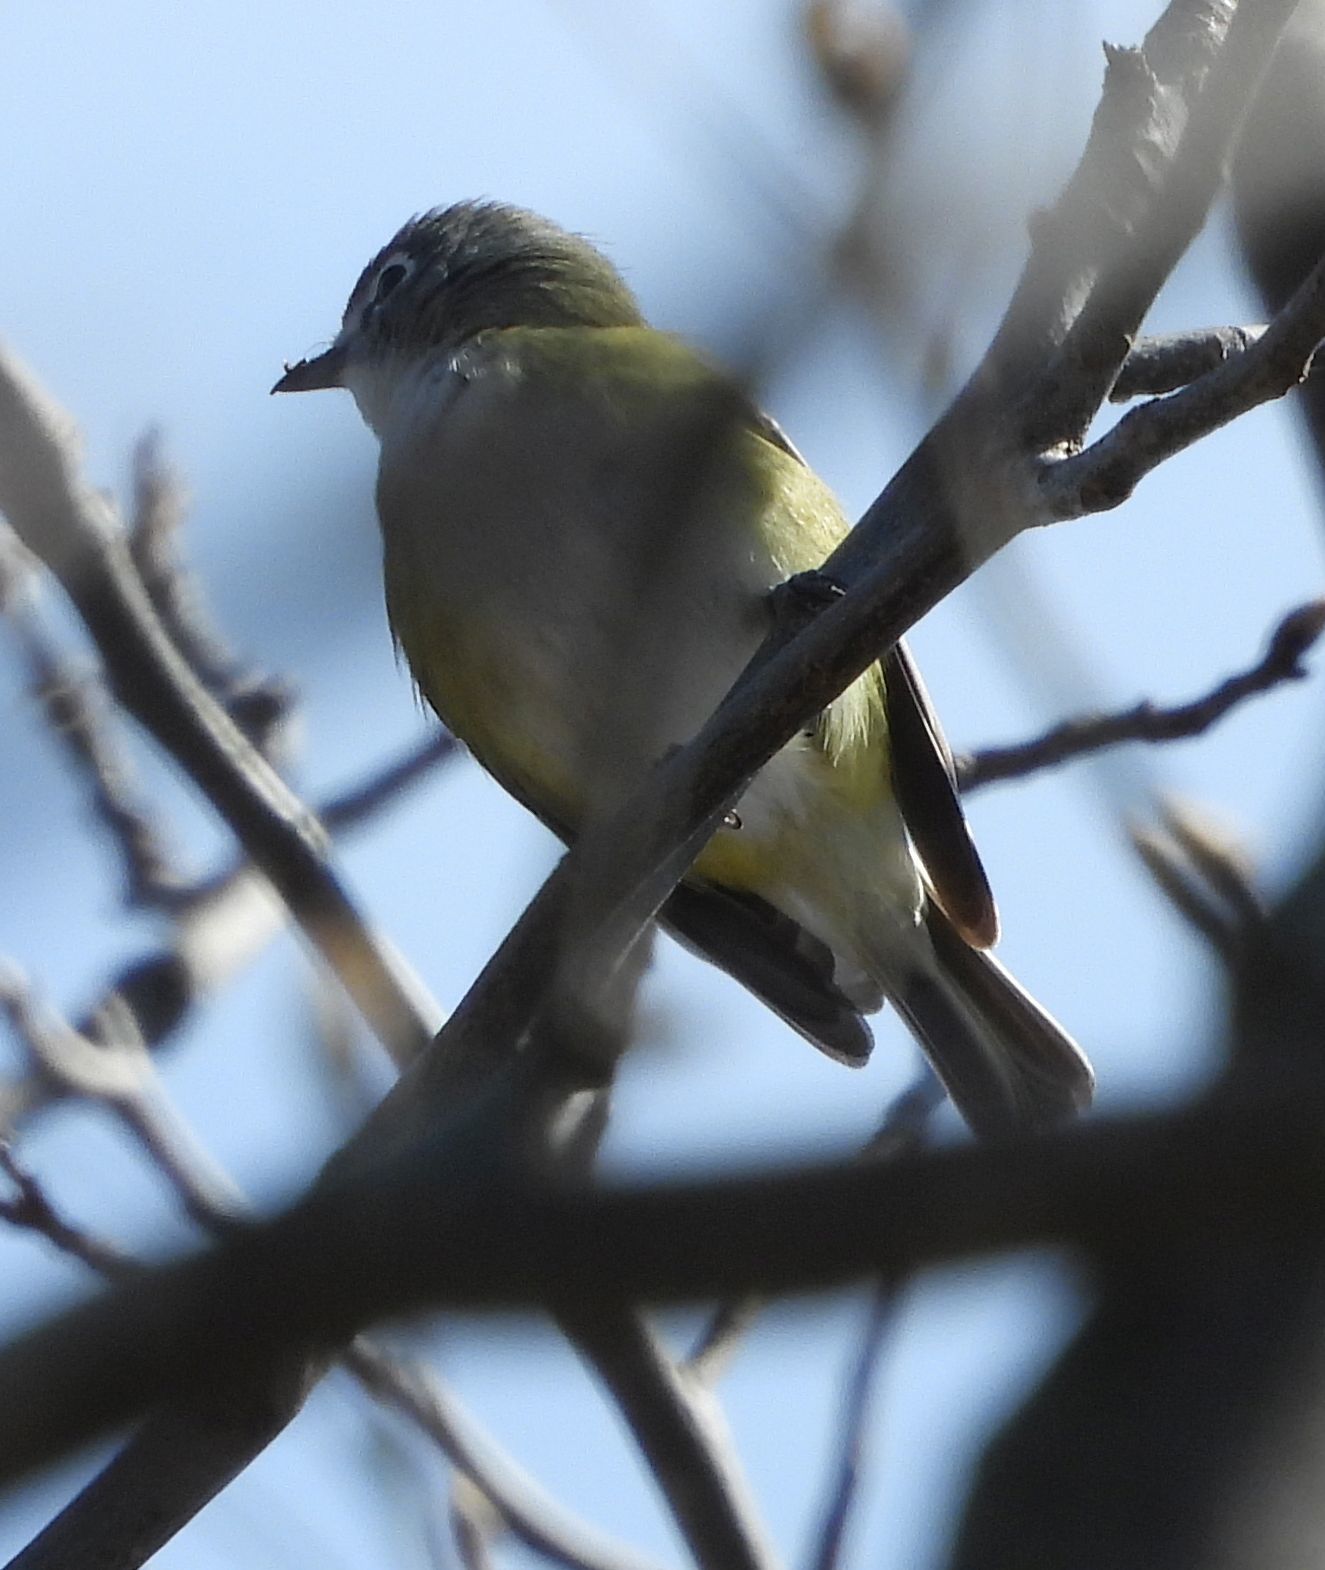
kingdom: Animalia
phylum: Chordata
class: Aves
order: Passeriformes
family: Vireonidae
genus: Vireo
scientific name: Vireo solitarius
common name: Blue-headed vireo
